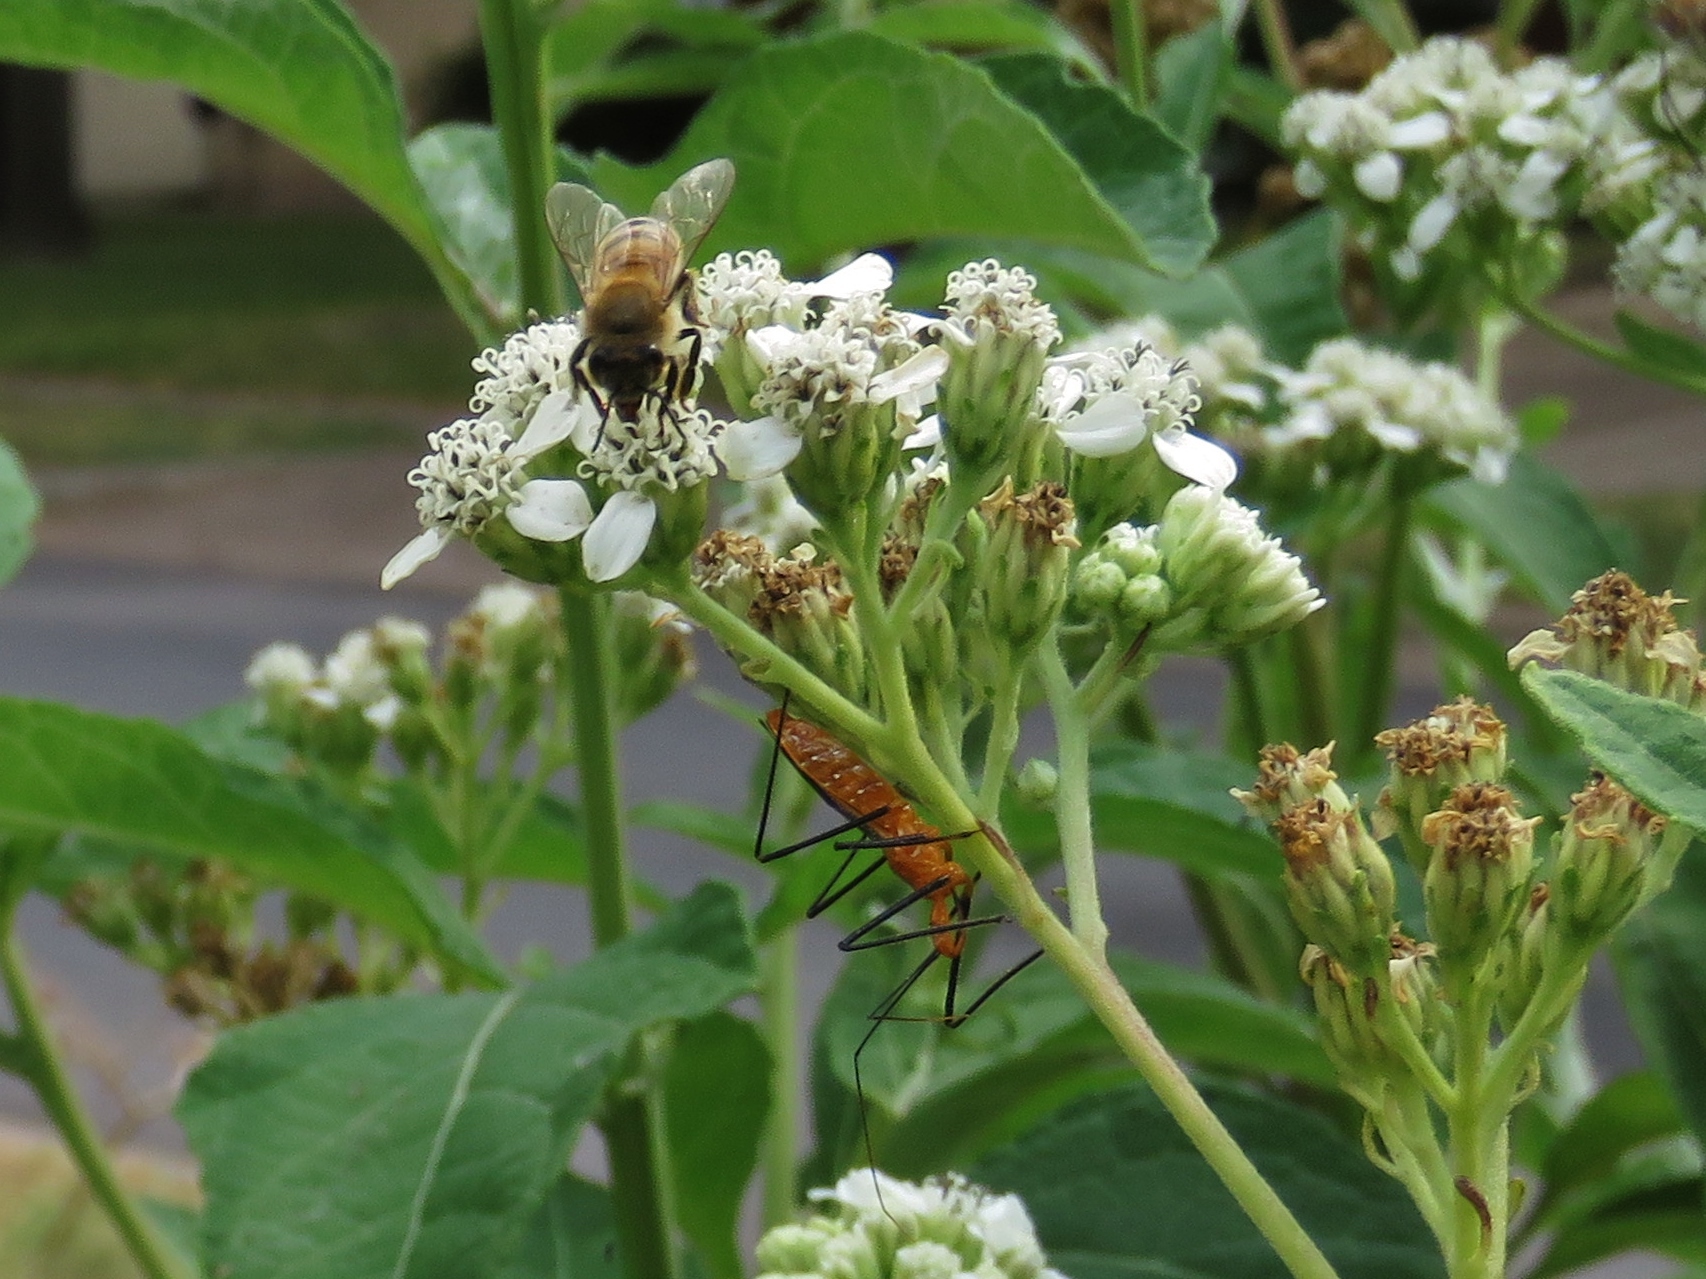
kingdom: Animalia
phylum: Arthropoda
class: Insecta
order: Hymenoptera
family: Apidae
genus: Apis
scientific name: Apis mellifera
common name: Honey bee
